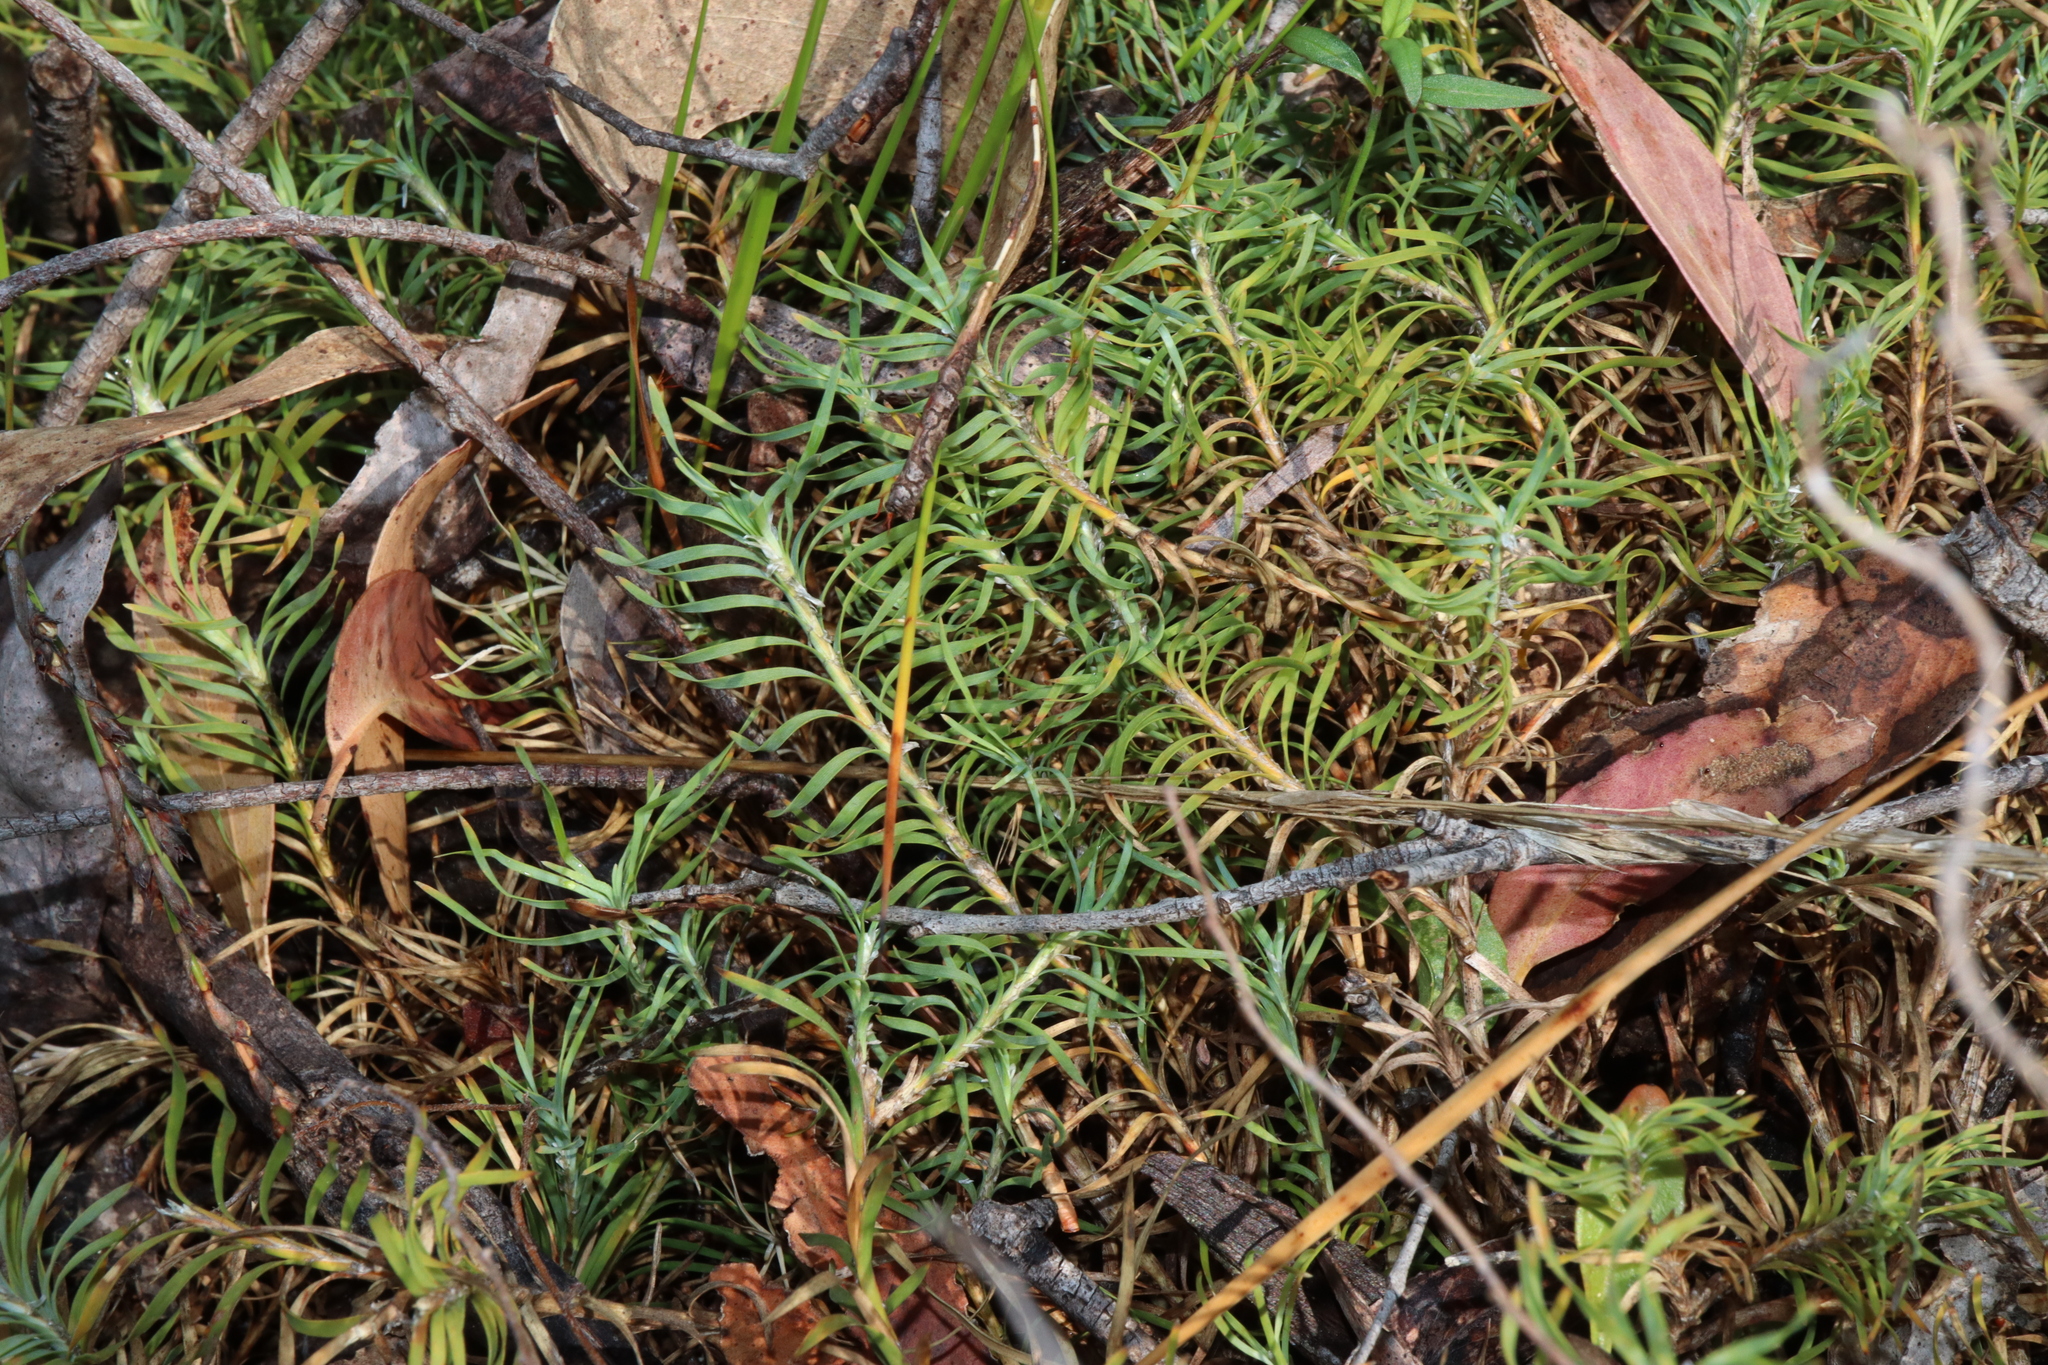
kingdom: Plantae
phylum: Tracheophyta
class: Liliopsida
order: Asparagales
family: Asparagaceae
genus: Lomandra
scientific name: Lomandra obliqua
